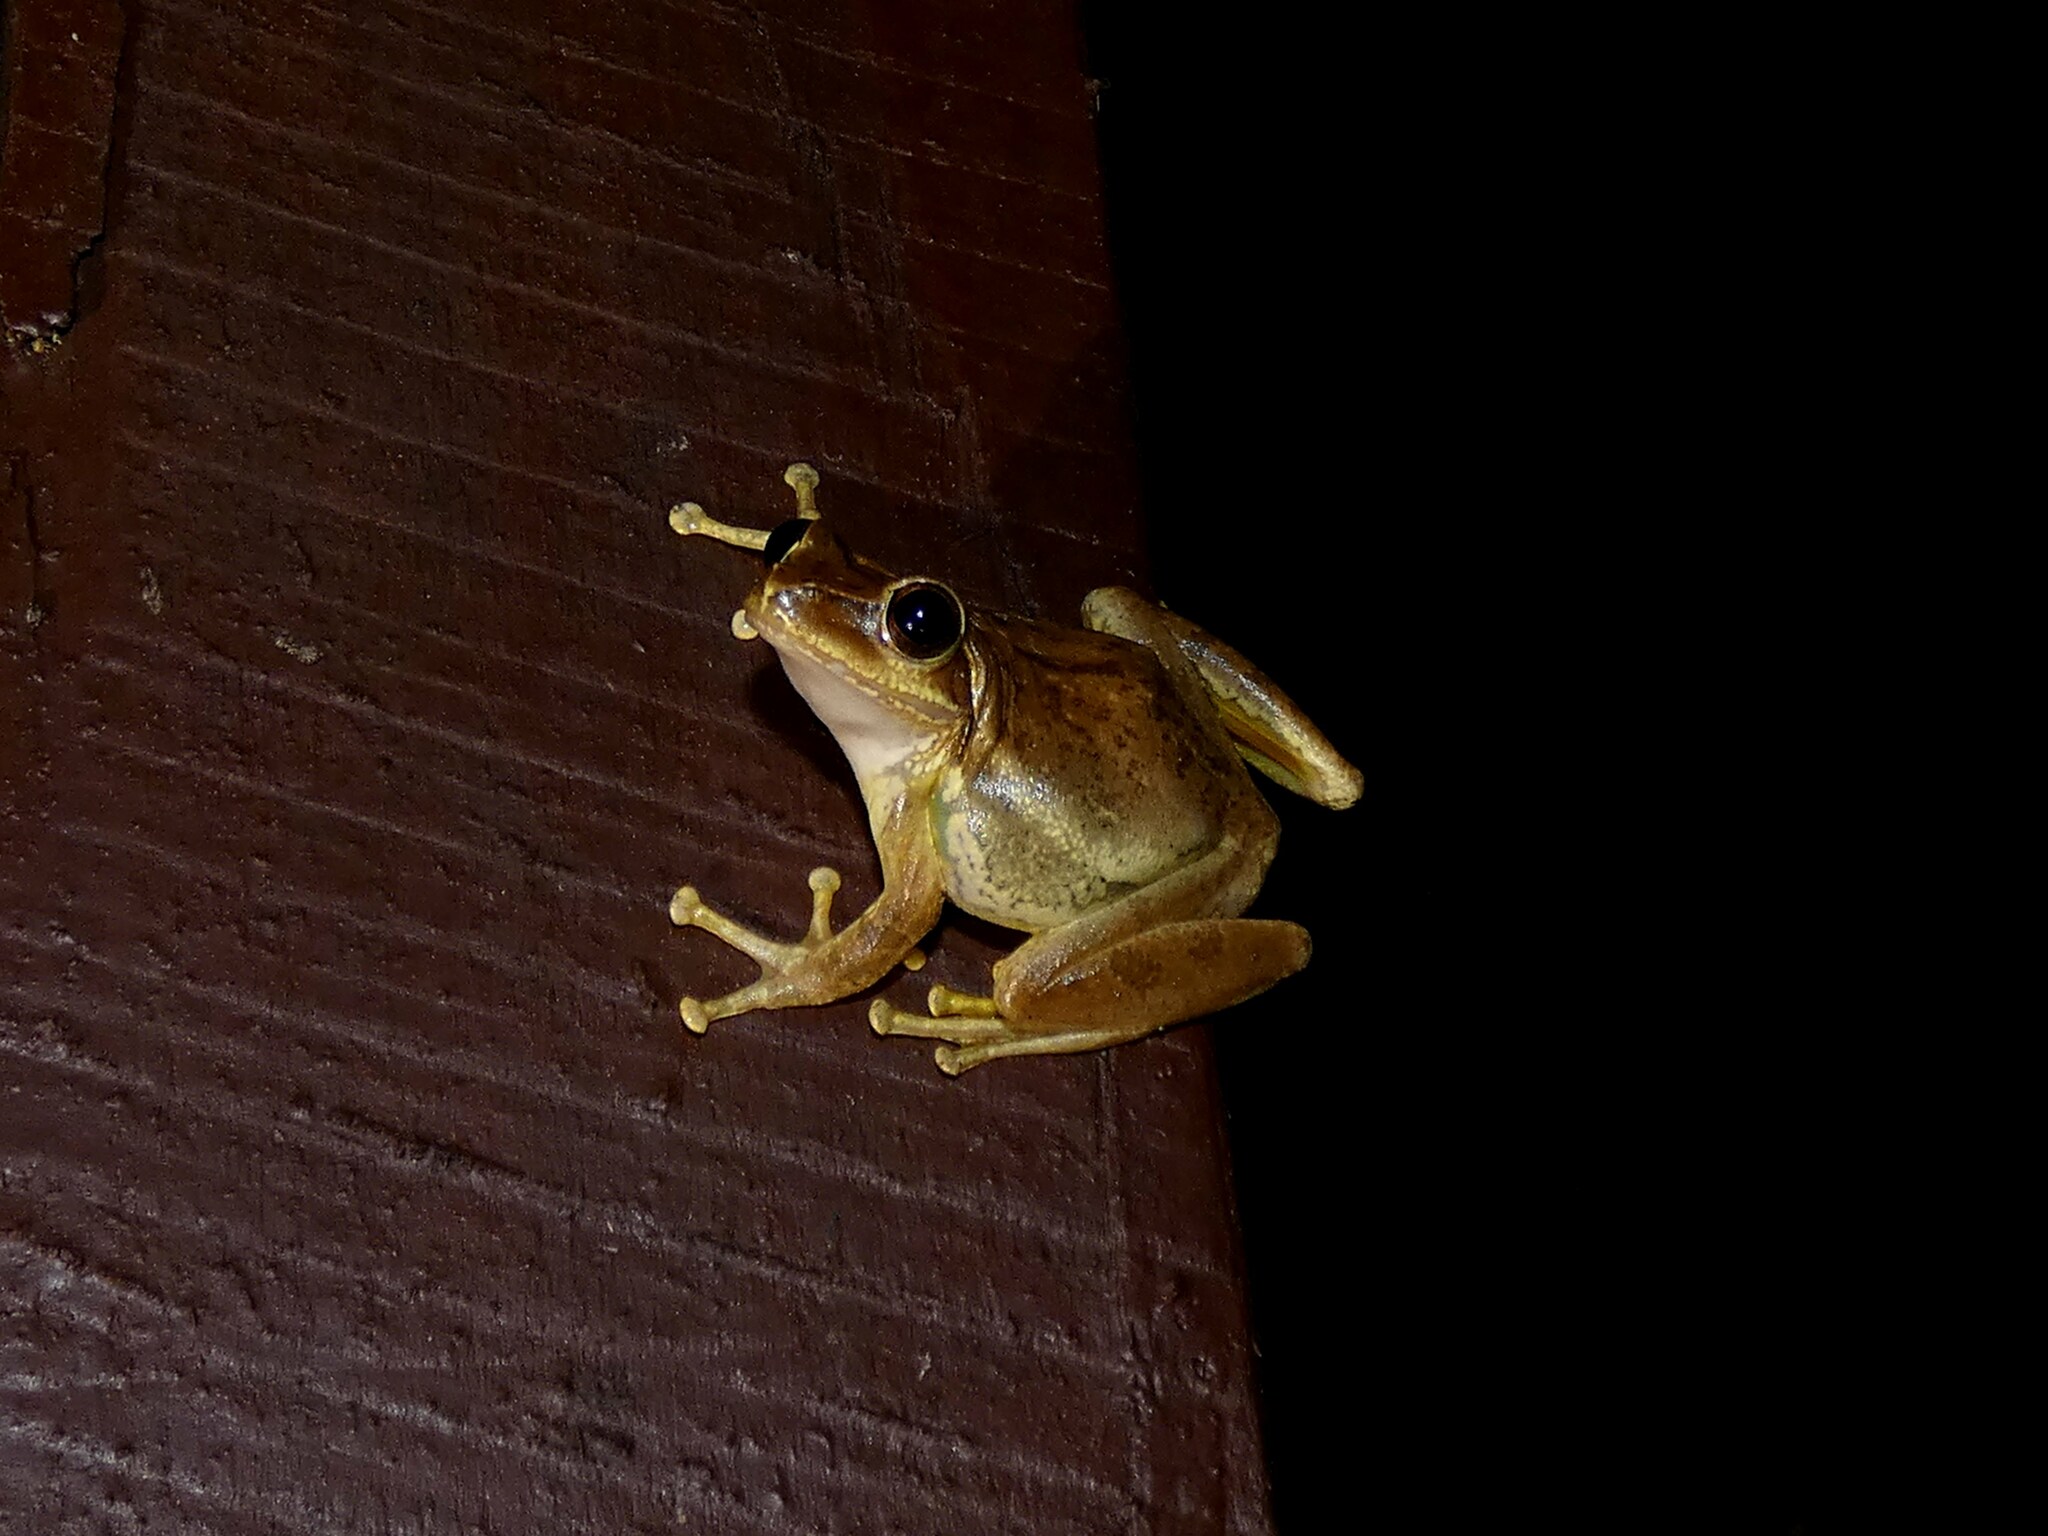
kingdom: Animalia
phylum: Chordata
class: Amphibia
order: Anura
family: Mantellidae
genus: Boophis
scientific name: Boophis madagascariensis
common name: Madagascar bright-eyed frog
